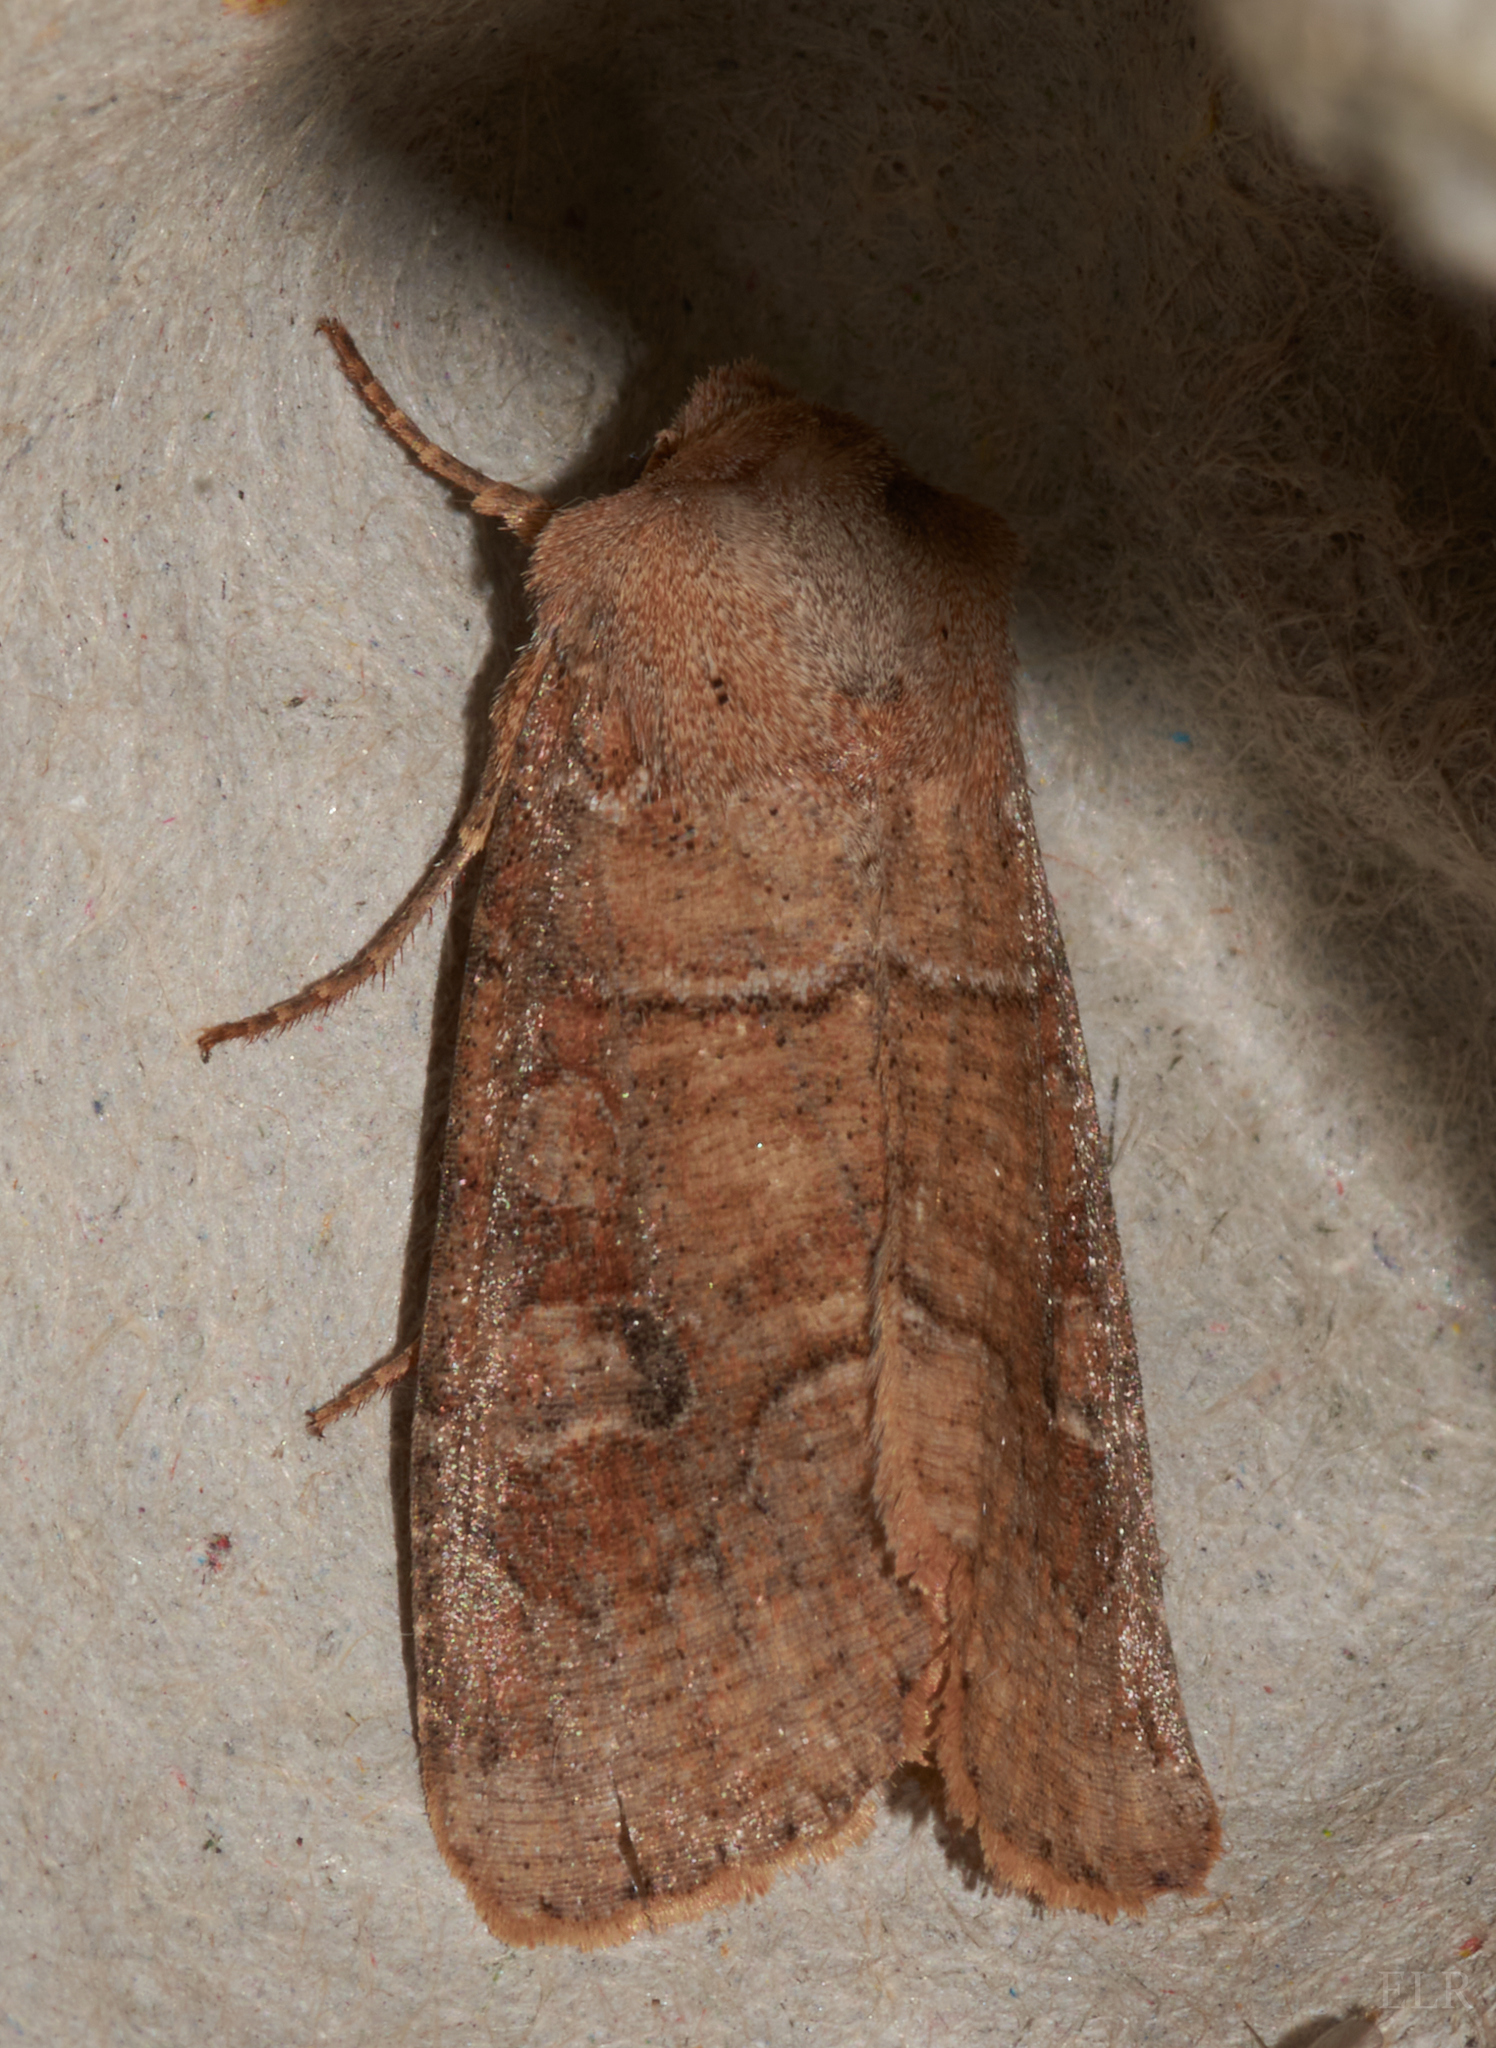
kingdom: Animalia
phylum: Arthropoda
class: Insecta
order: Lepidoptera
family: Noctuidae
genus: Crocigrapha
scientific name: Crocigrapha normani
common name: Norman's quaker
